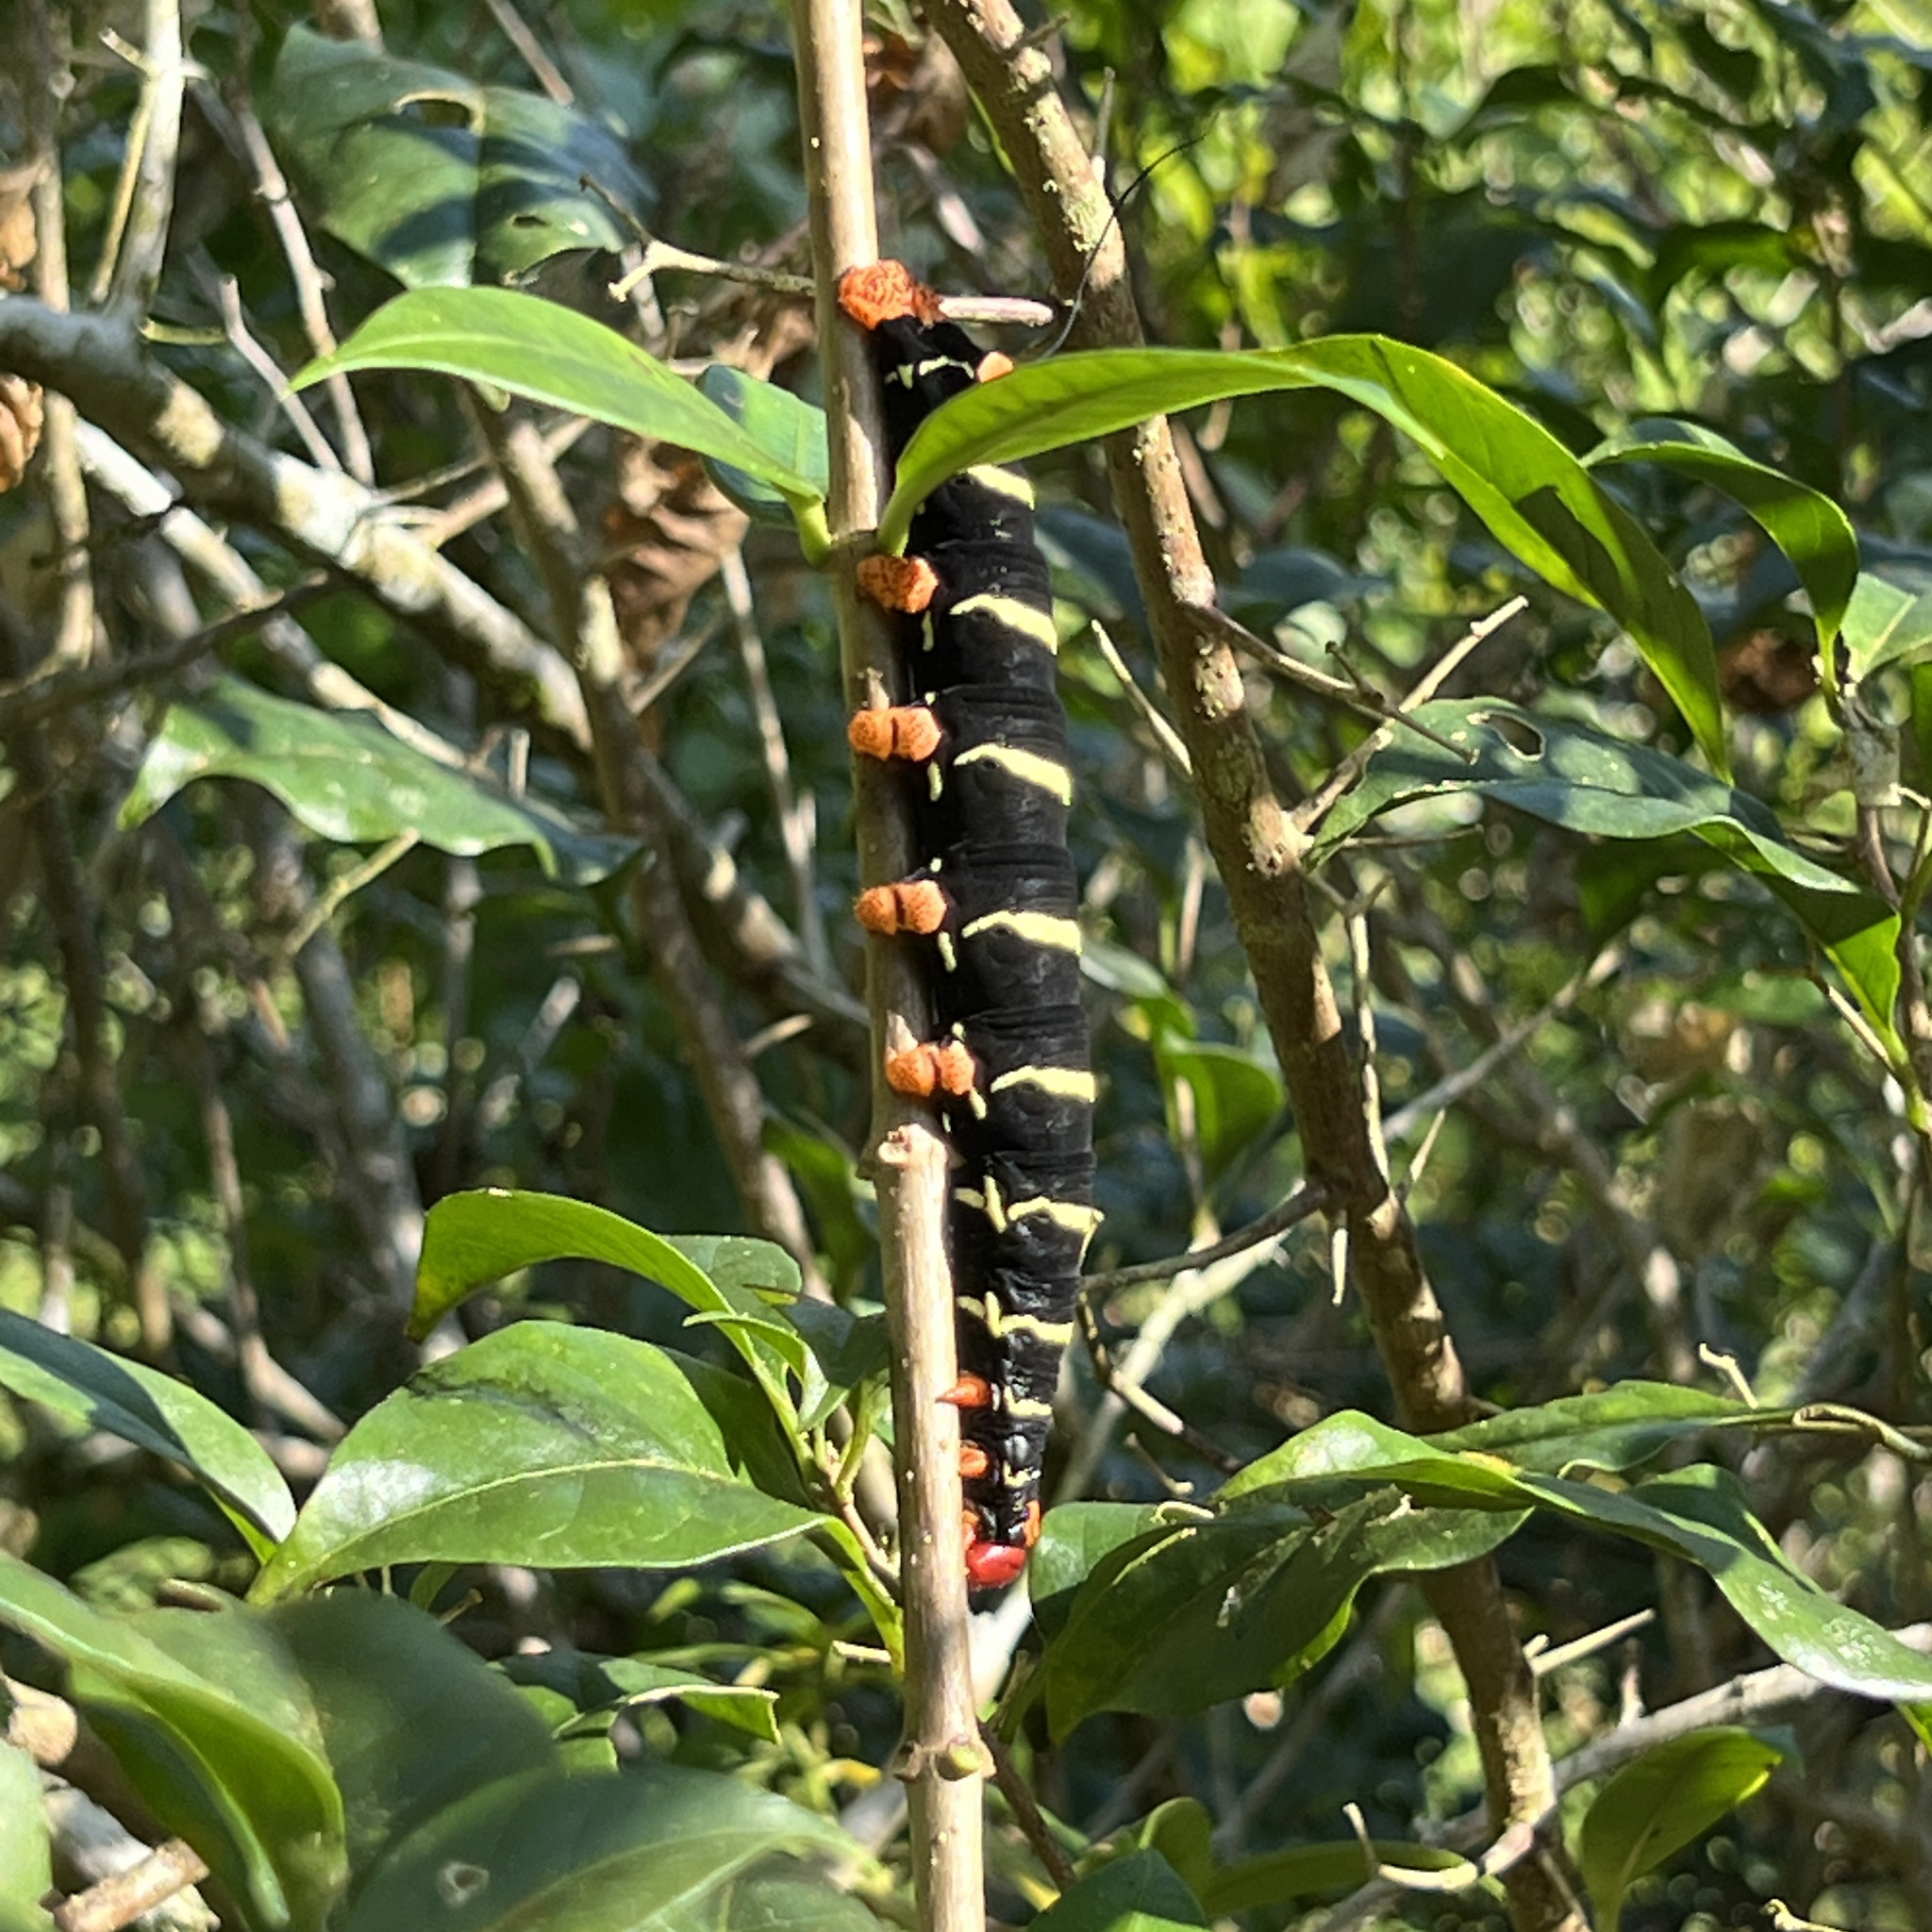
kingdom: Animalia
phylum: Arthropoda
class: Insecta
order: Lepidoptera
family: Sphingidae
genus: Pseudosphinx
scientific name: Pseudosphinx tetrio
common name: Tetrio sphinx
